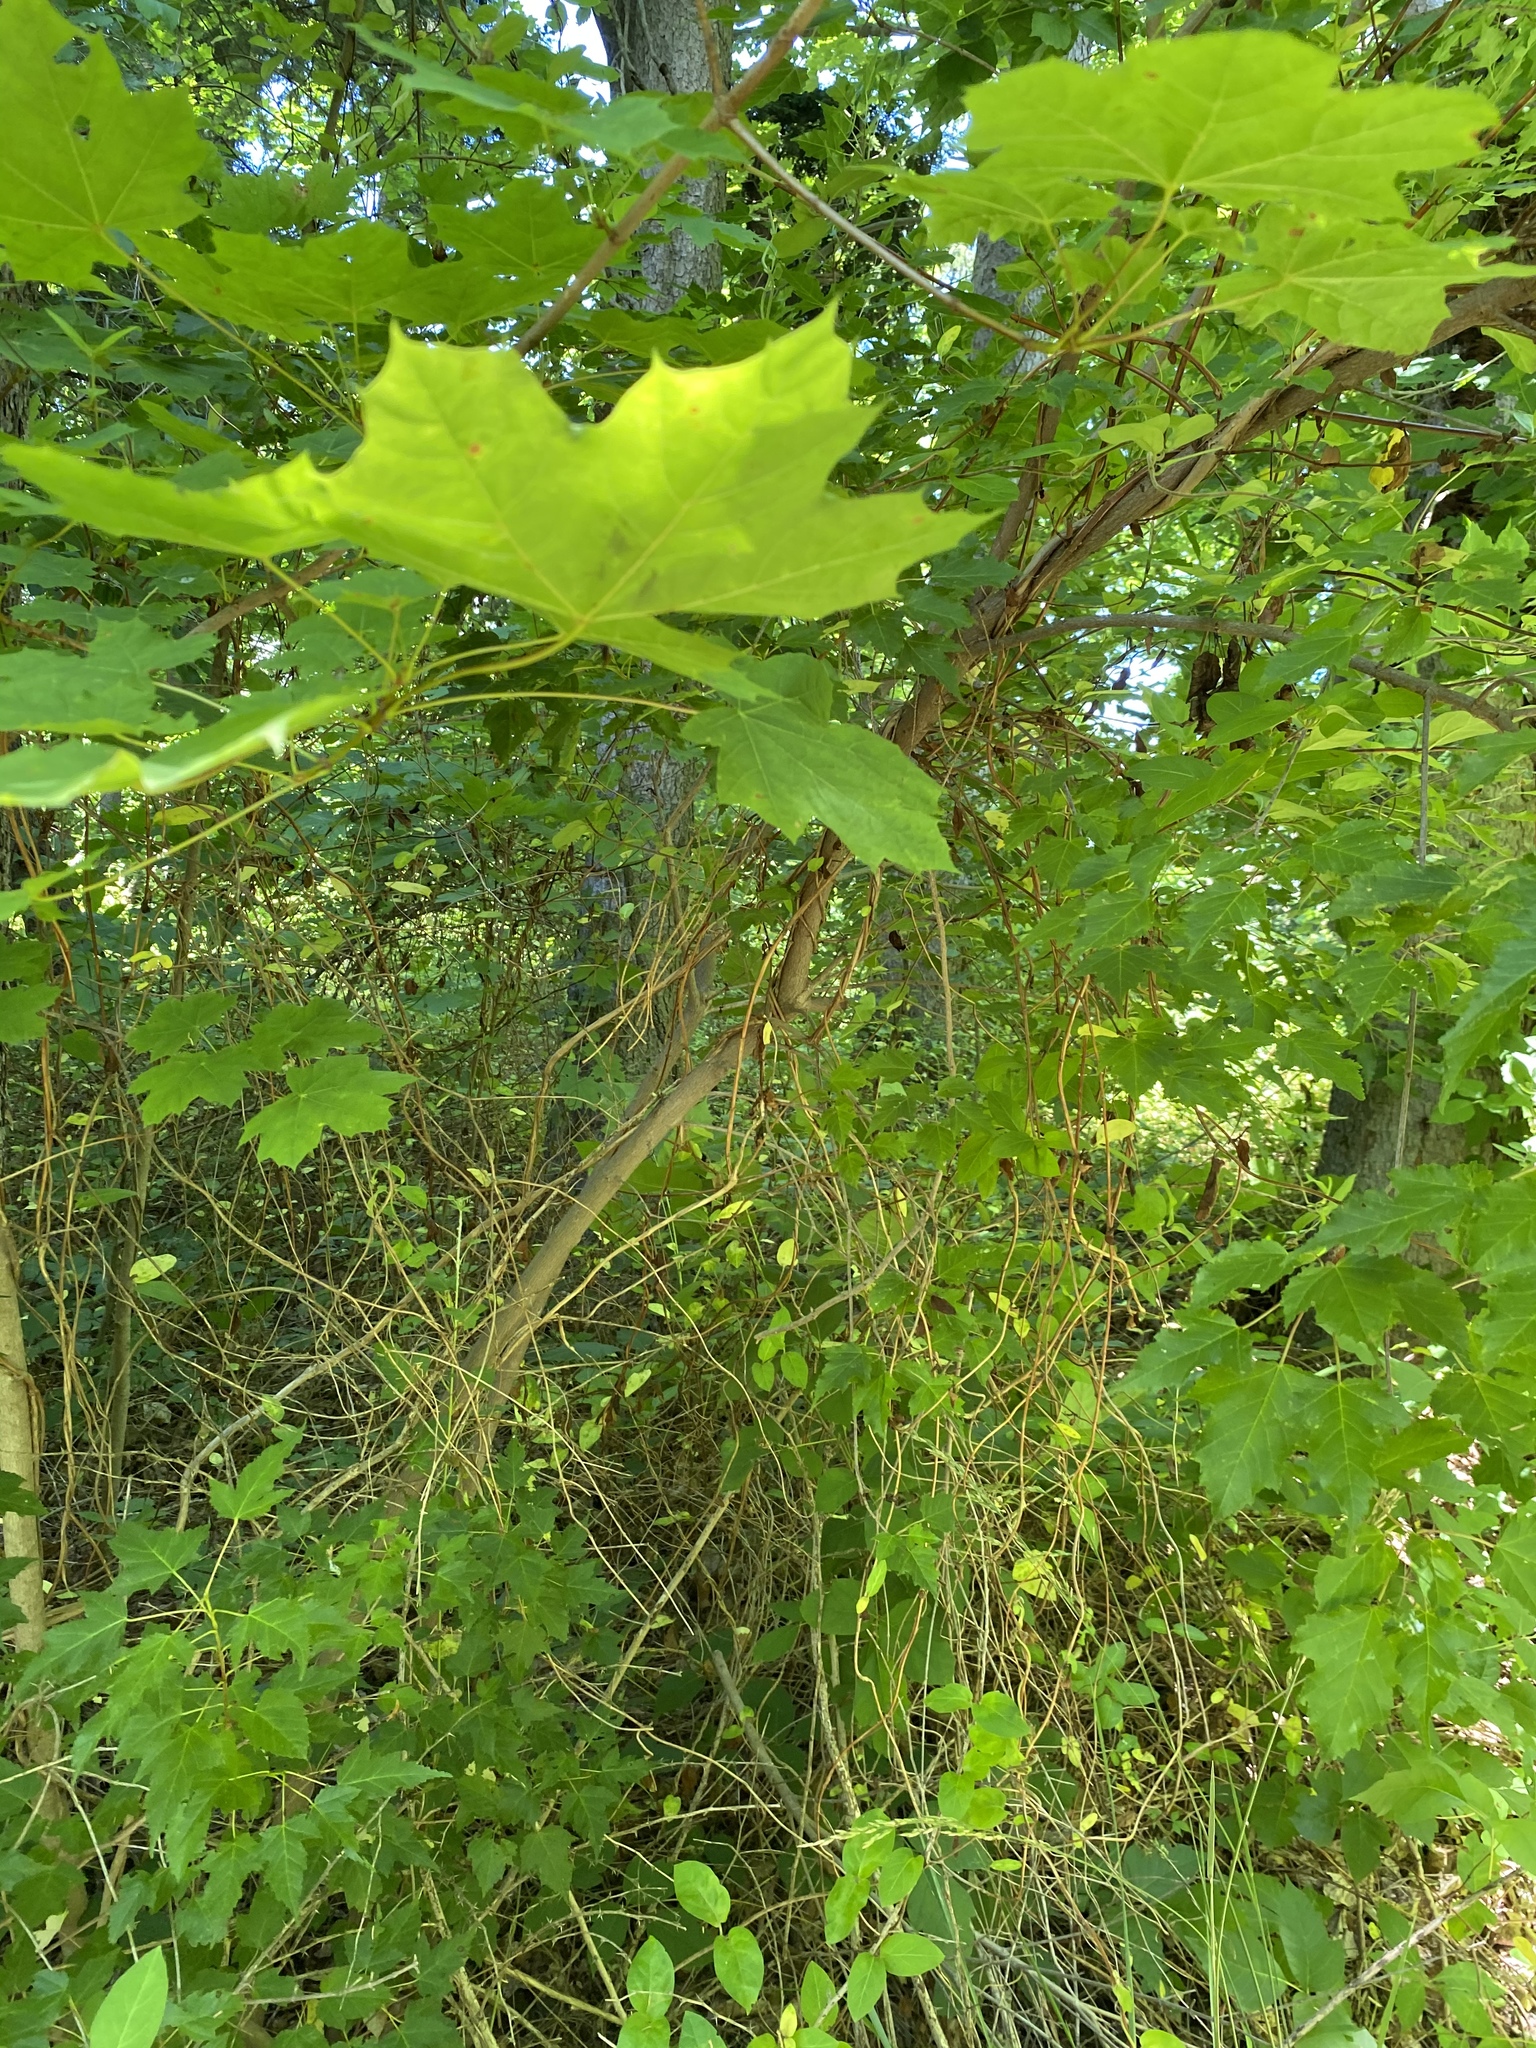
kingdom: Plantae
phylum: Tracheophyta
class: Magnoliopsida
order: Sapindales
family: Sapindaceae
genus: Acer
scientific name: Acer tataricum
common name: Tartar maple
